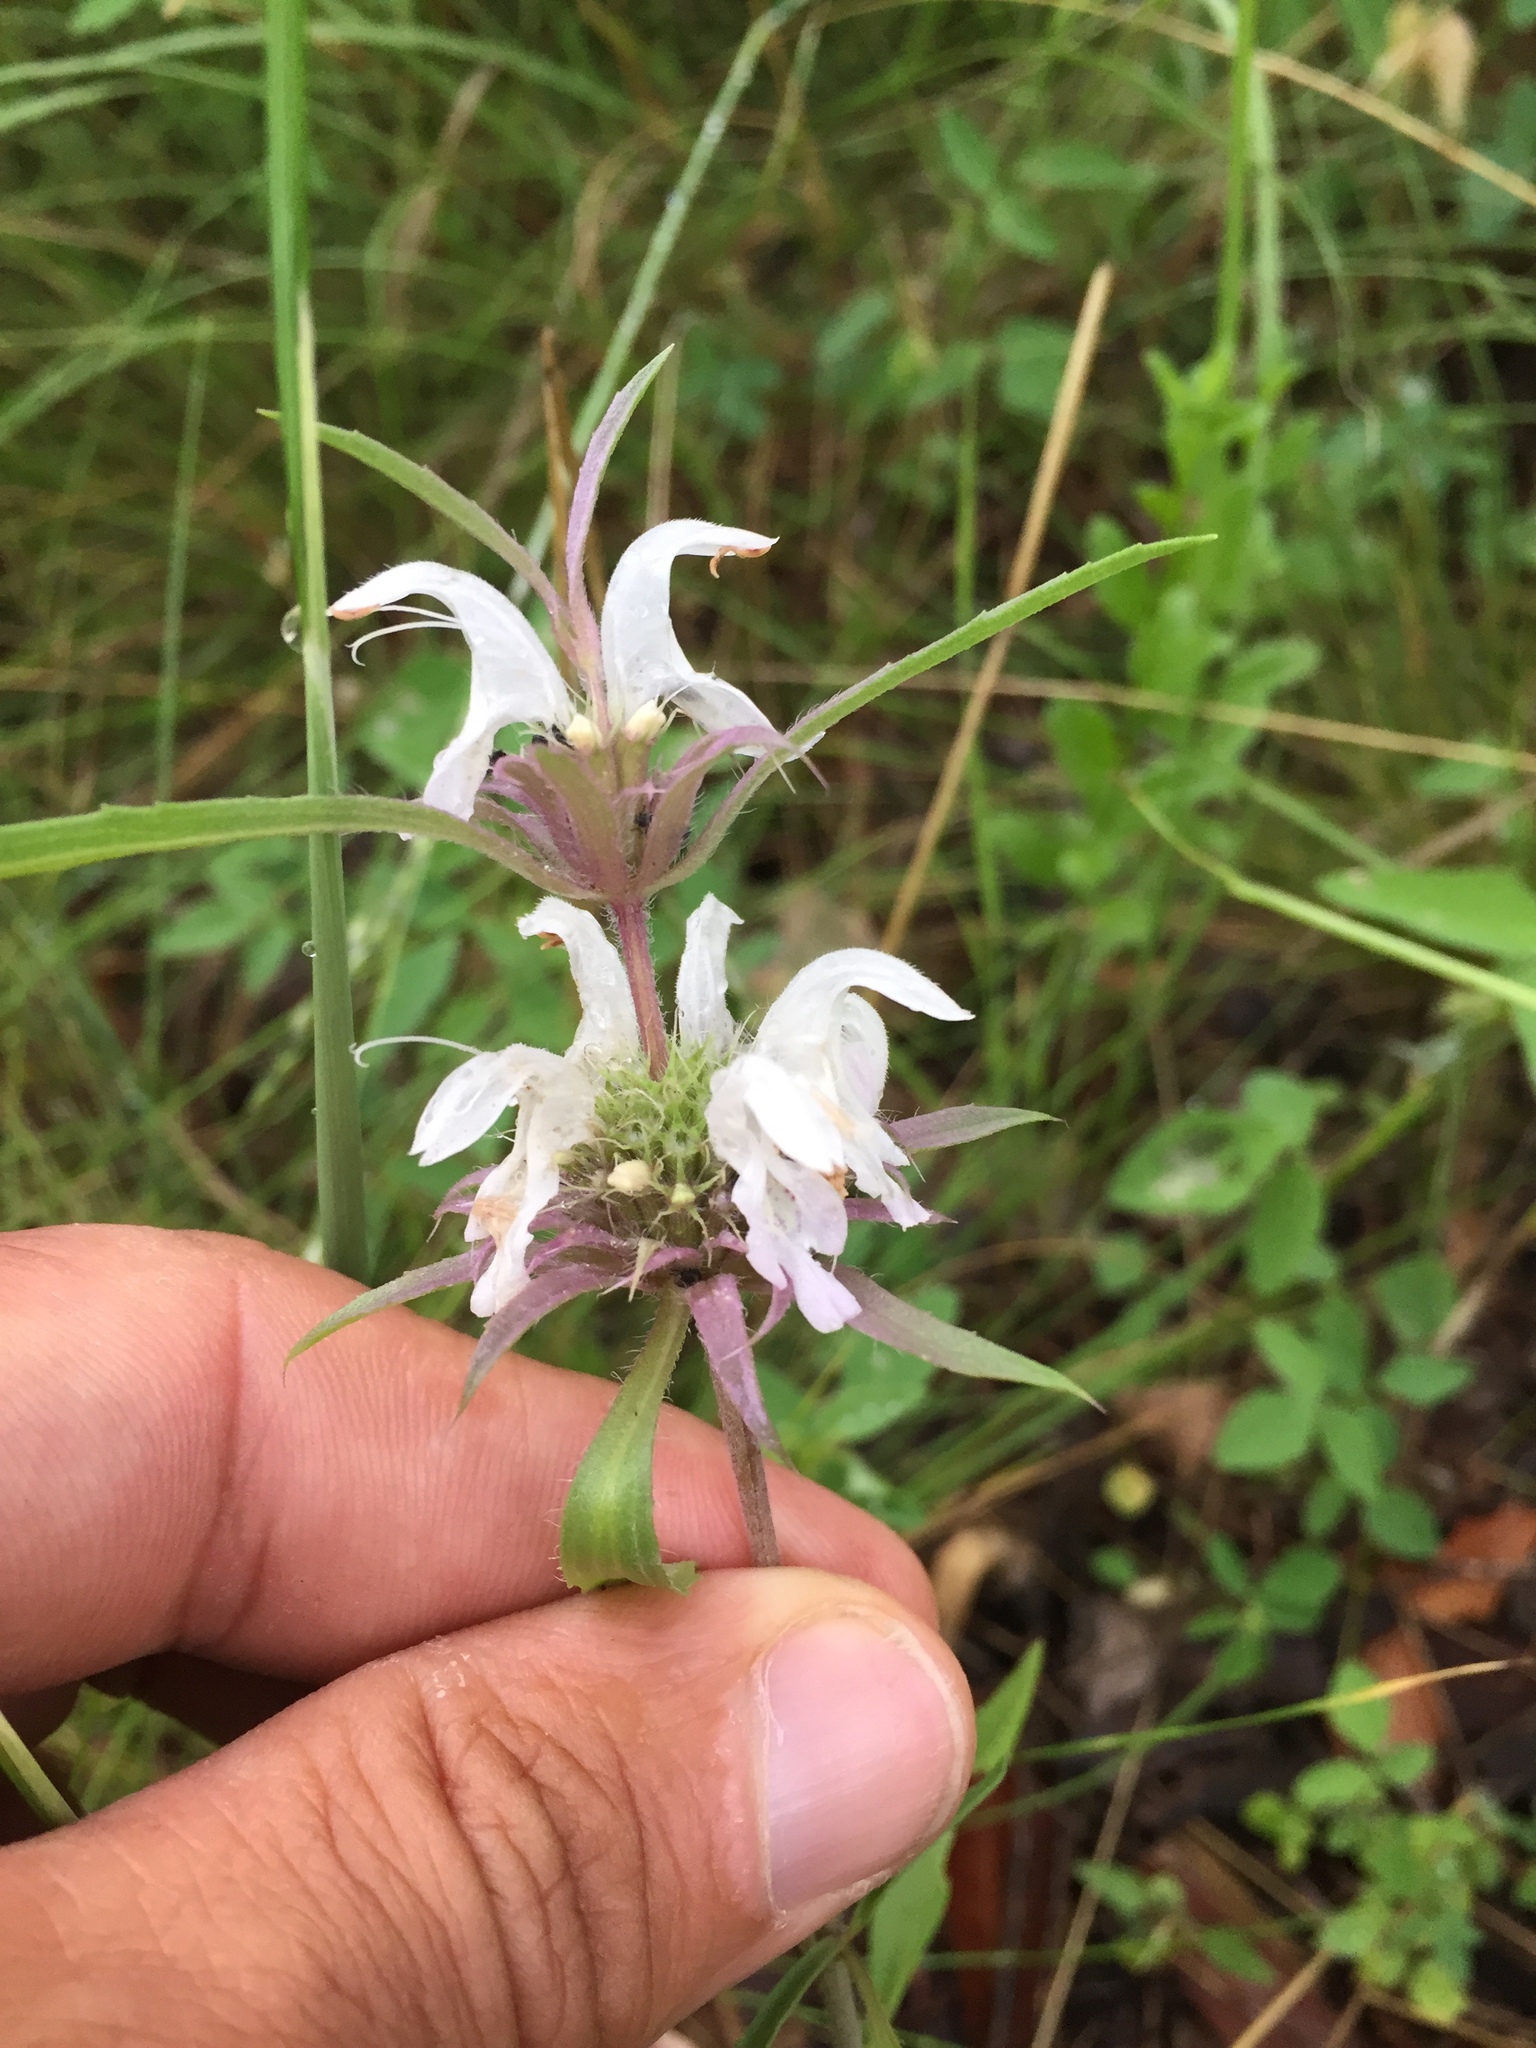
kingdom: Plantae
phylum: Tracheophyta
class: Magnoliopsida
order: Lamiales
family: Lamiaceae
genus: Monarda
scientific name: Monarda citriodora
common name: Lemon beebalm
